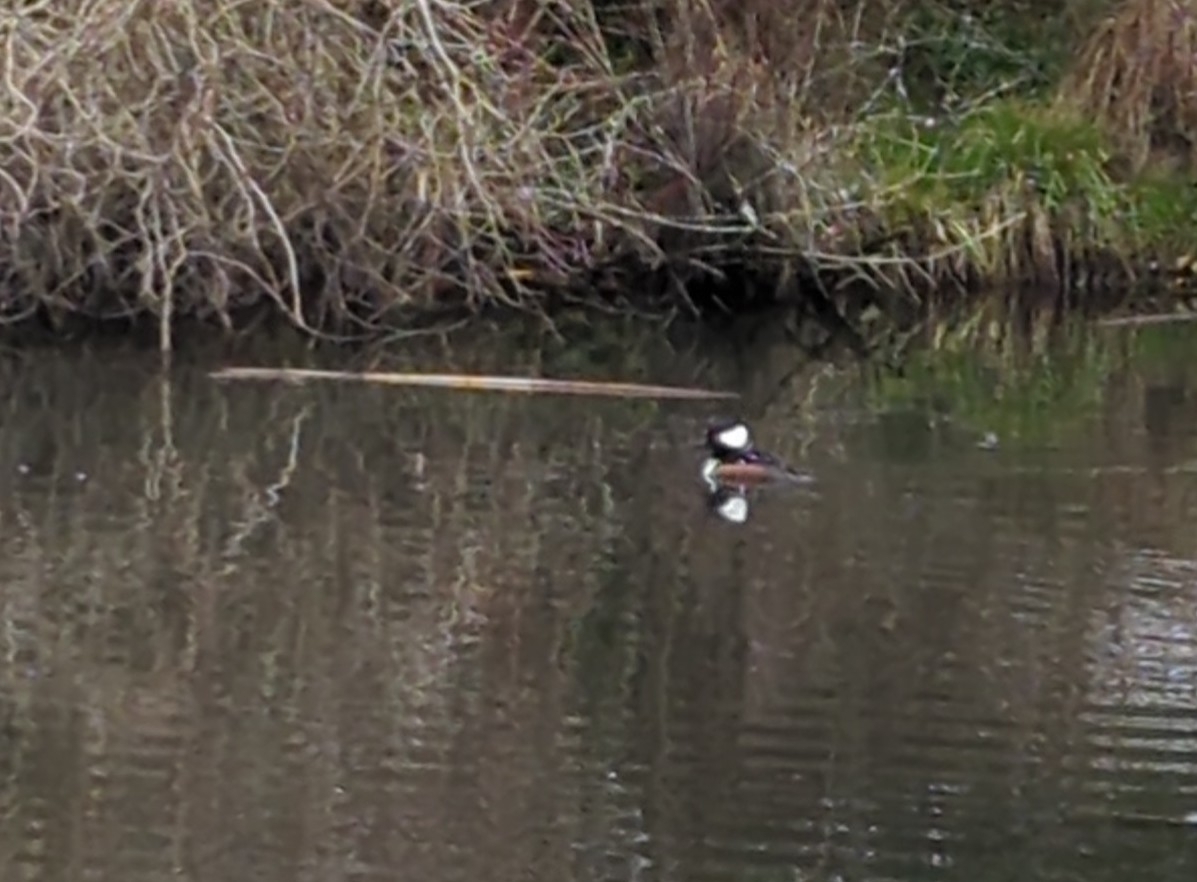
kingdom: Animalia
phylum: Chordata
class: Aves
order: Anseriformes
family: Anatidae
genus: Lophodytes
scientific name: Lophodytes cucullatus
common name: Hooded merganser
